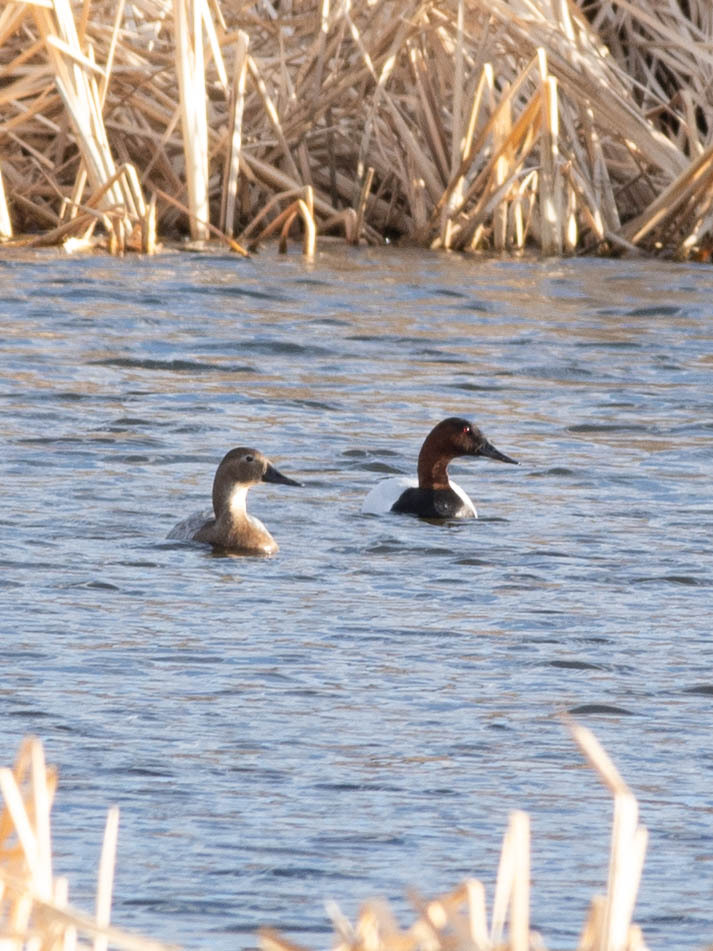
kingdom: Animalia
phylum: Chordata
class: Aves
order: Anseriformes
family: Anatidae
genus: Aythya
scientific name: Aythya valisineria
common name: Canvasback
